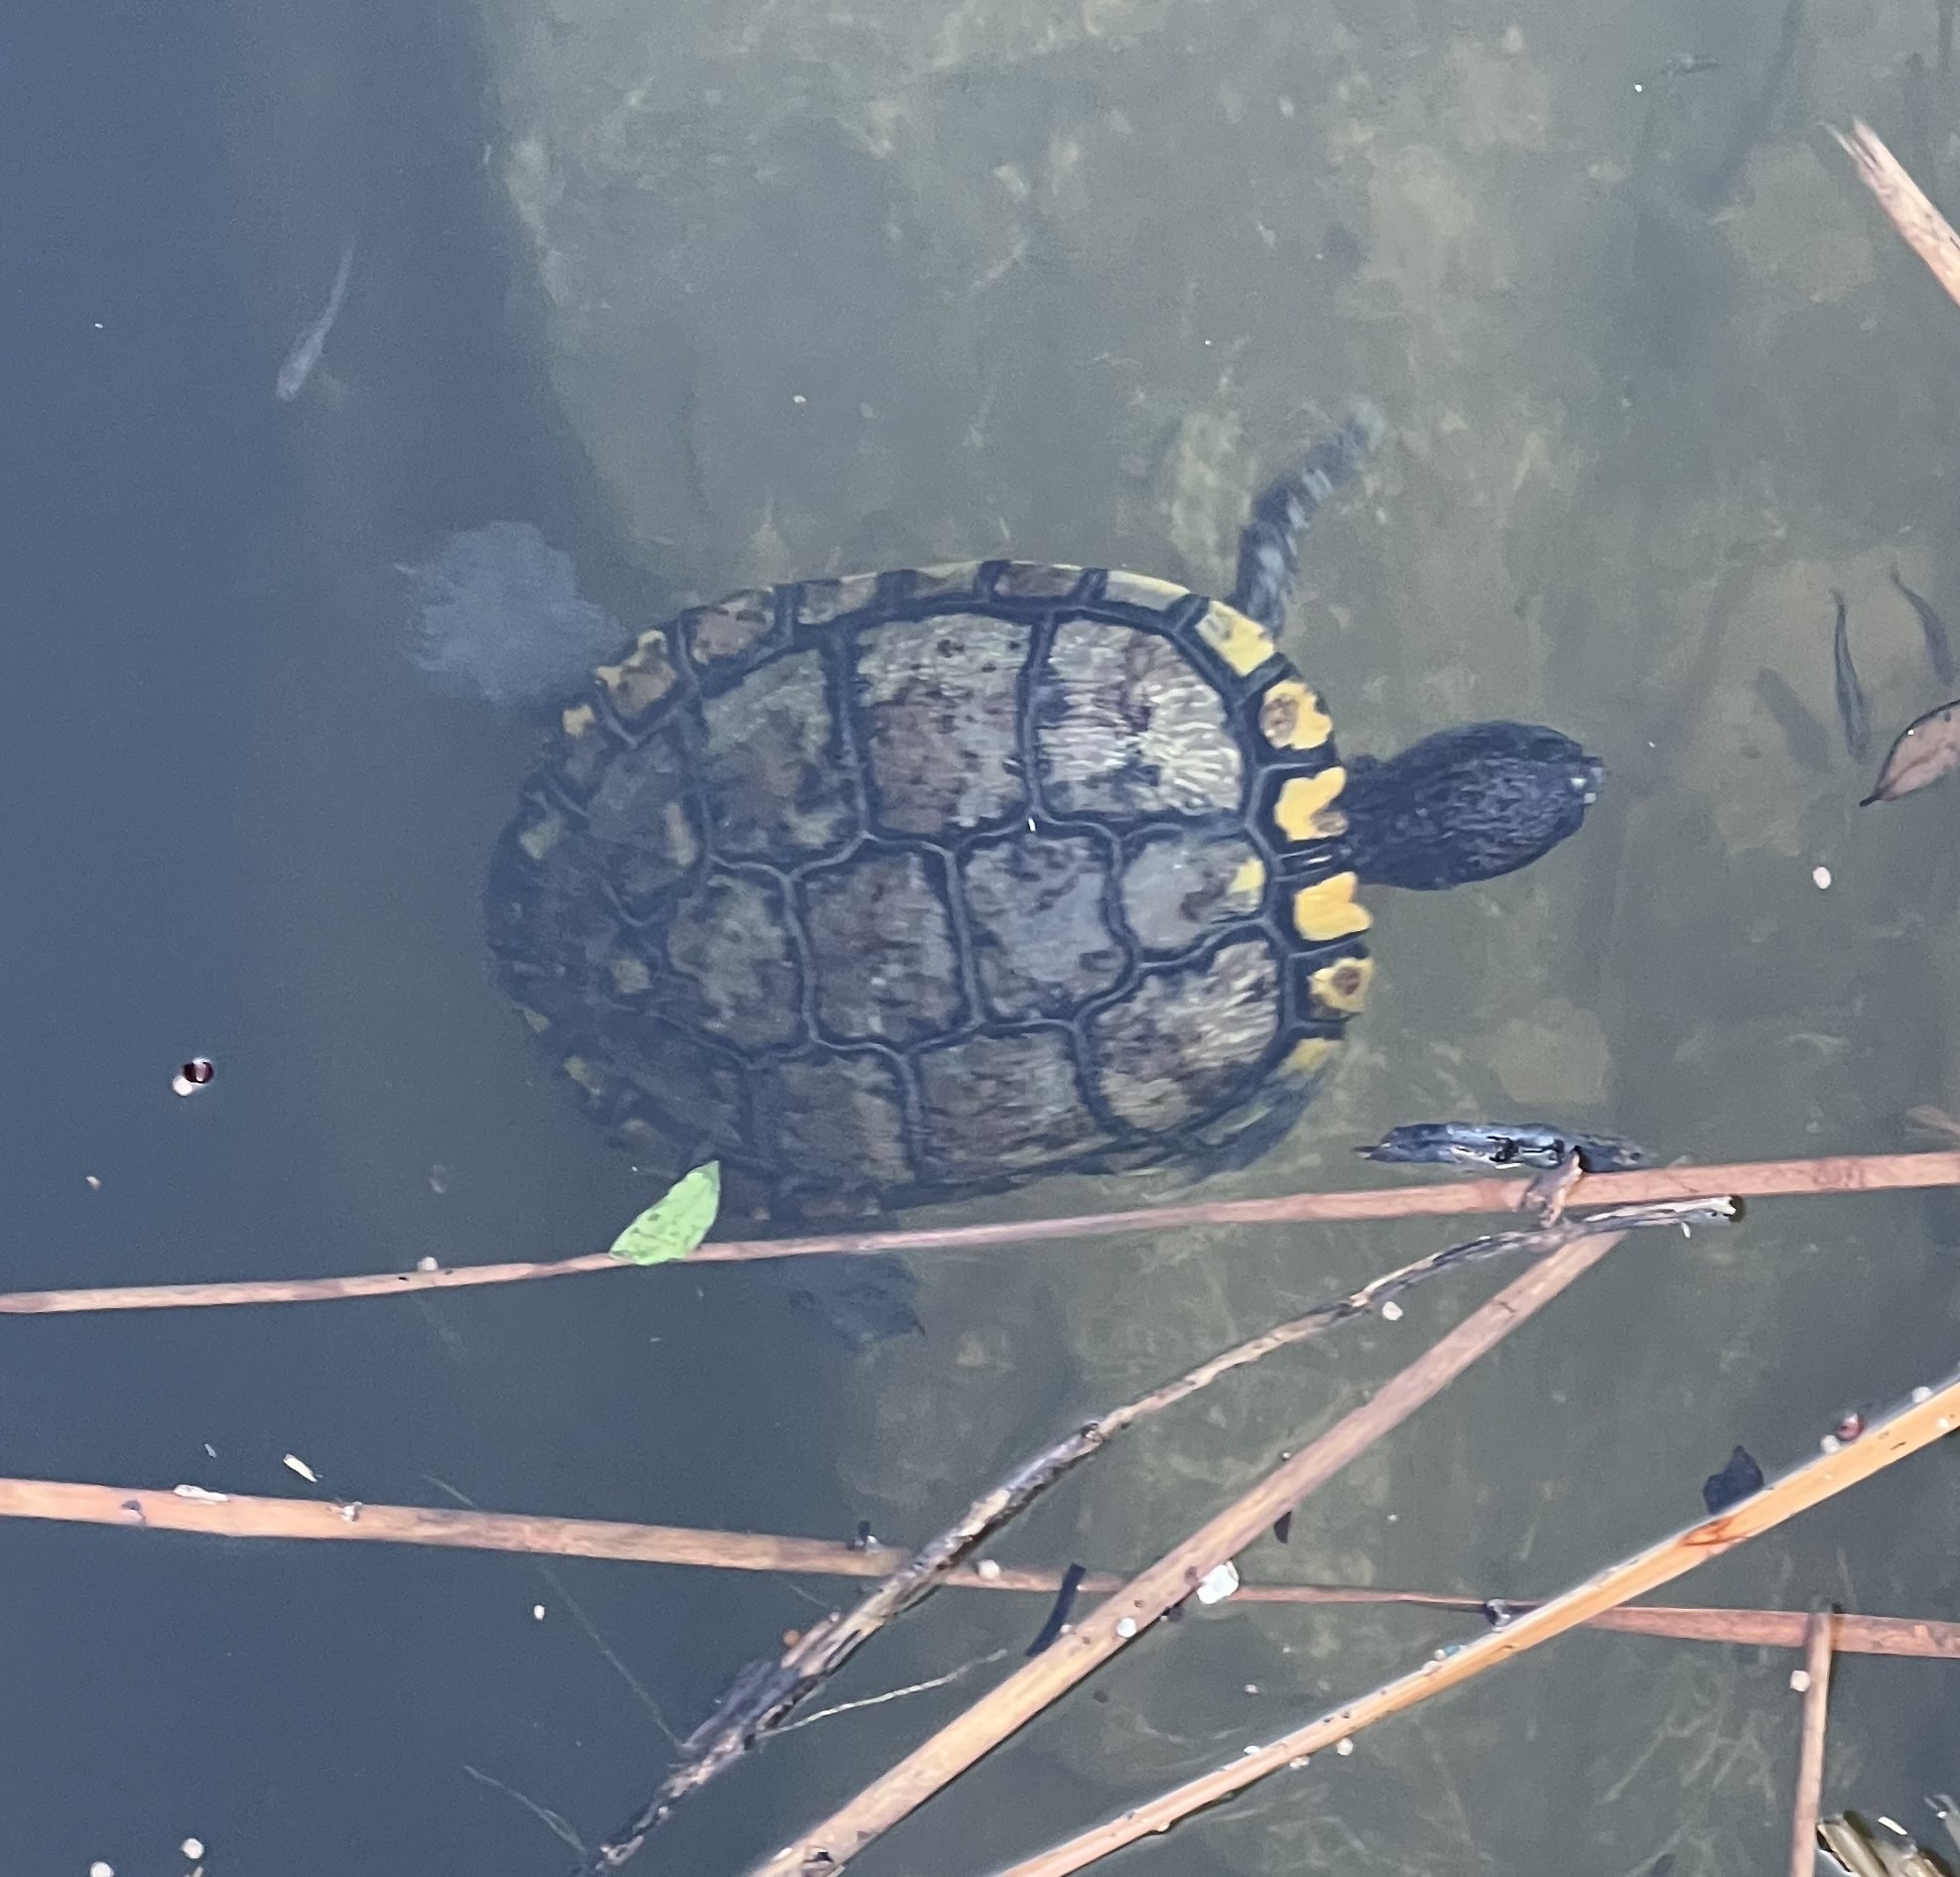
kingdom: Animalia
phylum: Chordata
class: Testudines
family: Emydidae
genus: Trachemys
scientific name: Trachemys scripta
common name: Slider
